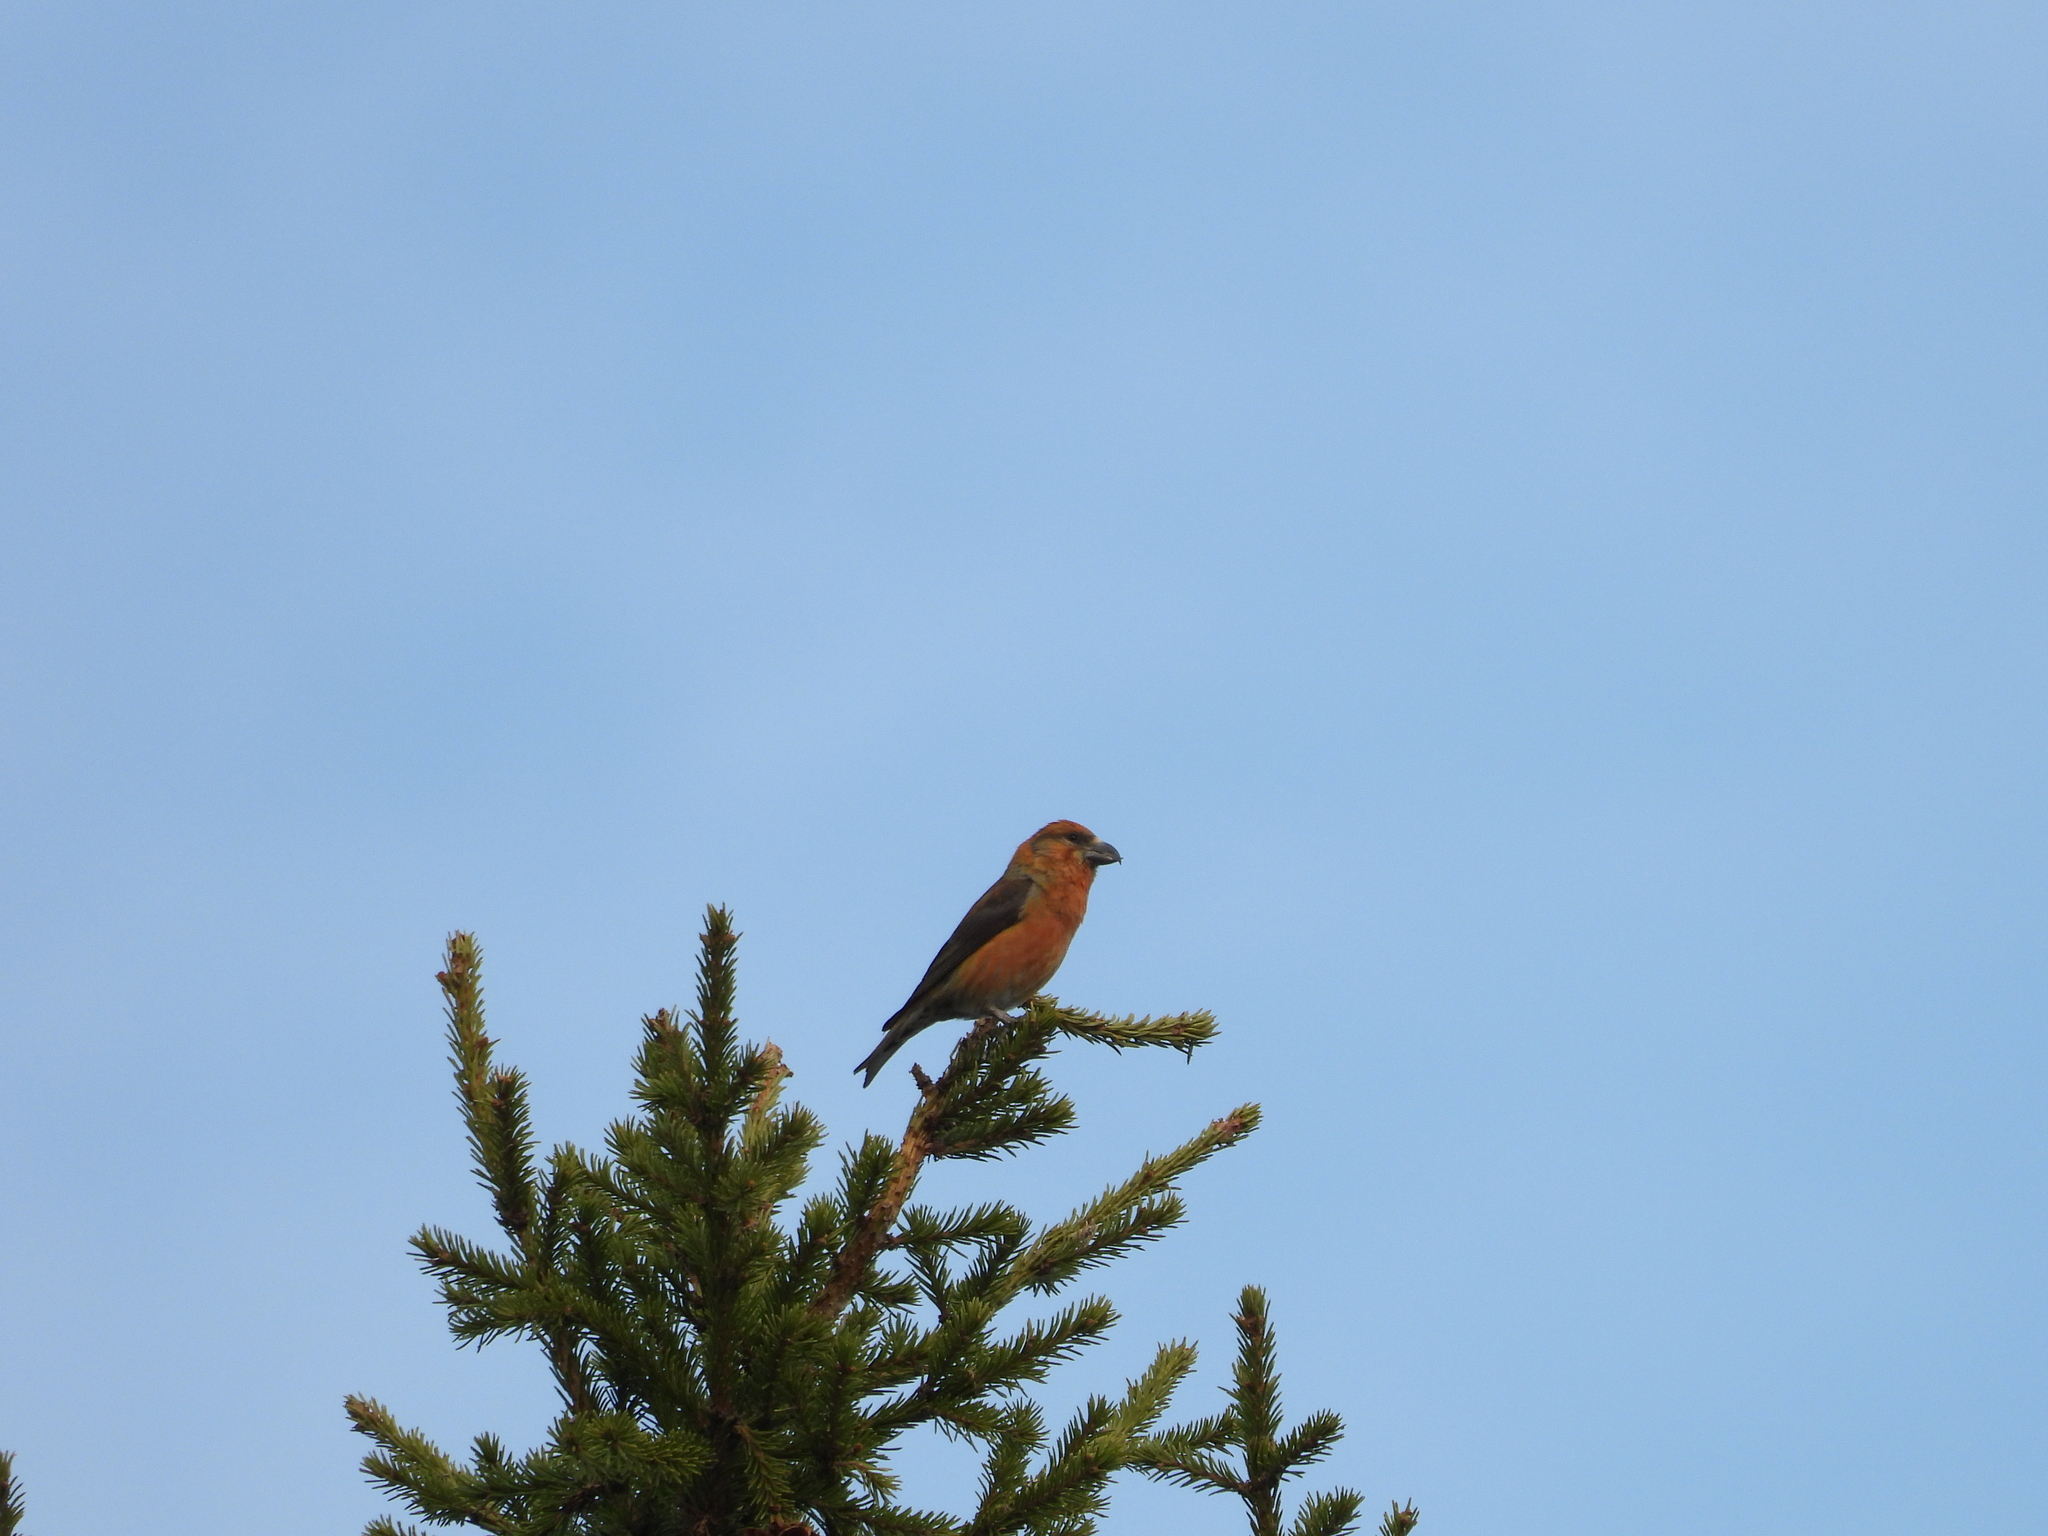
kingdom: Animalia
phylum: Chordata
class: Aves
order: Passeriformes
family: Fringillidae
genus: Loxia
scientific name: Loxia curvirostra
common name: Red crossbill
